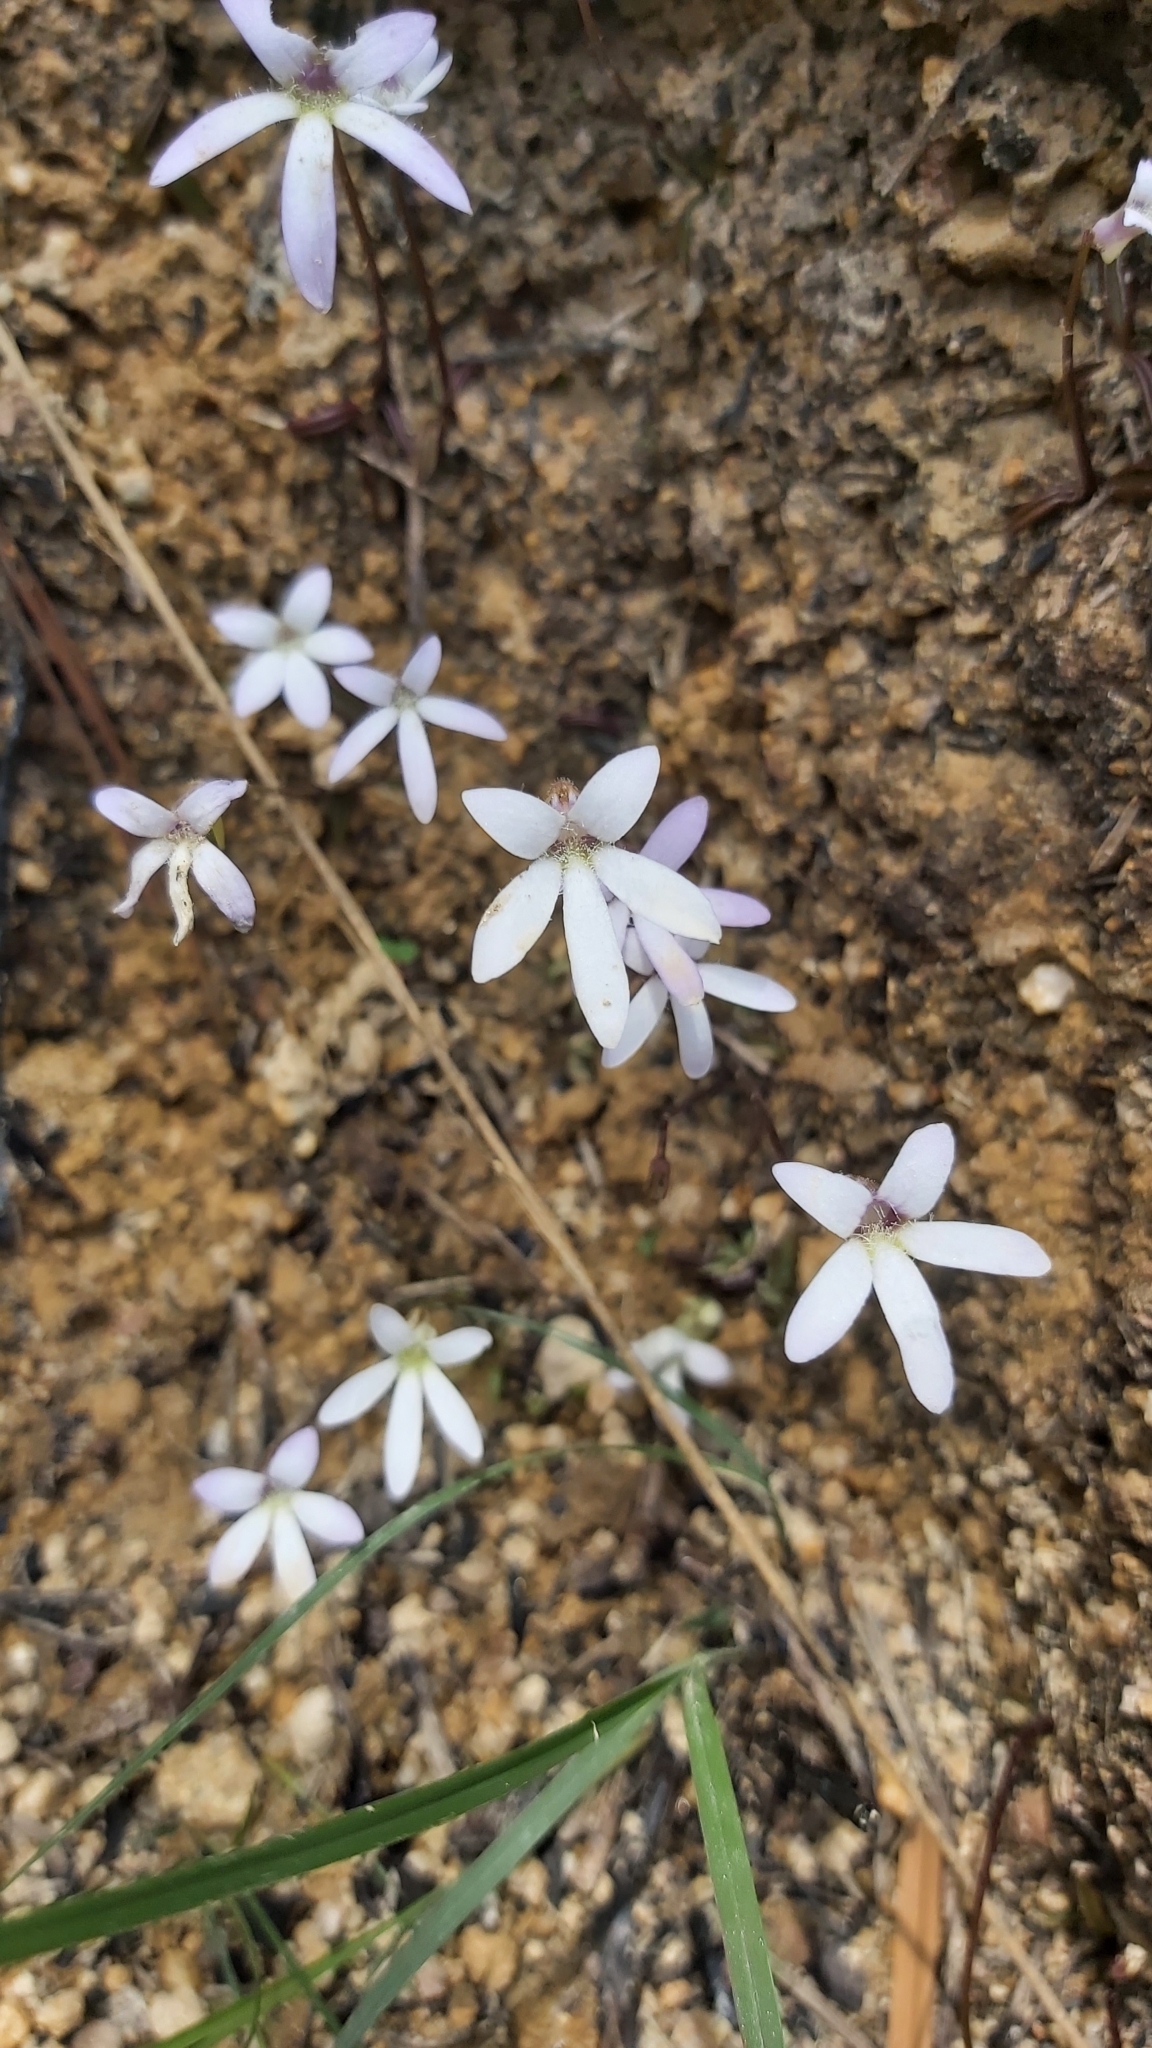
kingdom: Plantae
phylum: Tracheophyta
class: Magnoliopsida
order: Lamiales
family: Lentibulariaceae
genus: Pinguicula
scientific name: Pinguicula parvifolia
